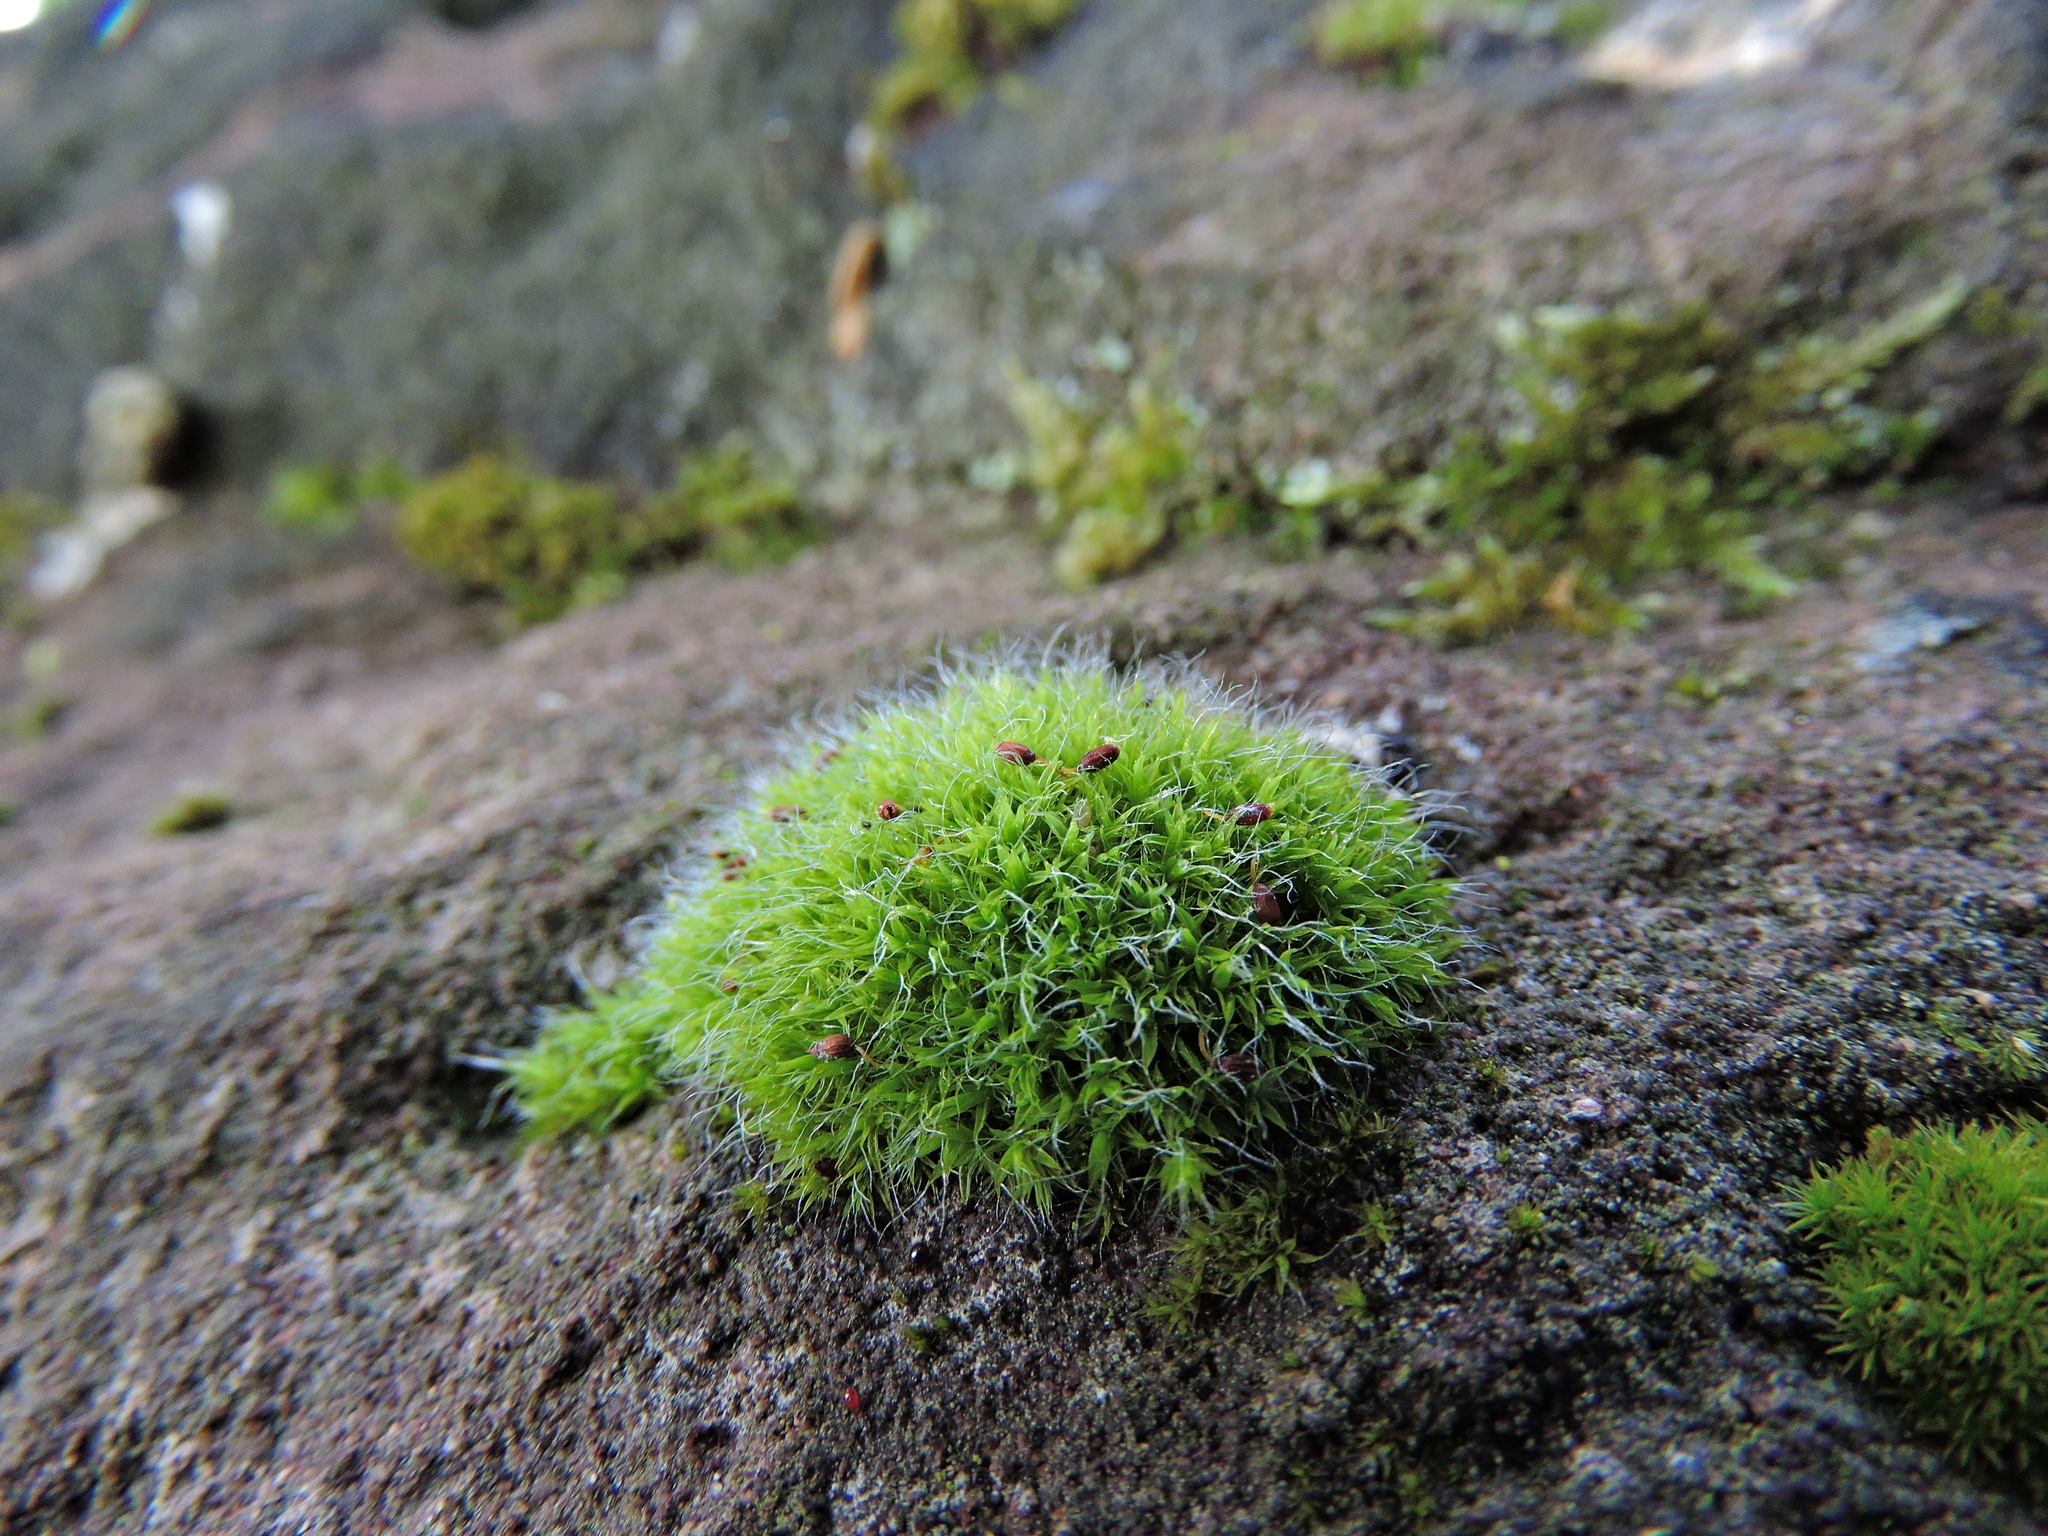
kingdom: Plantae
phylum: Bryophyta
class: Bryopsida
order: Grimmiales
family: Grimmiaceae
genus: Grimmia
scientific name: Grimmia pulvinata
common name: Grey-cushioned grimmia
